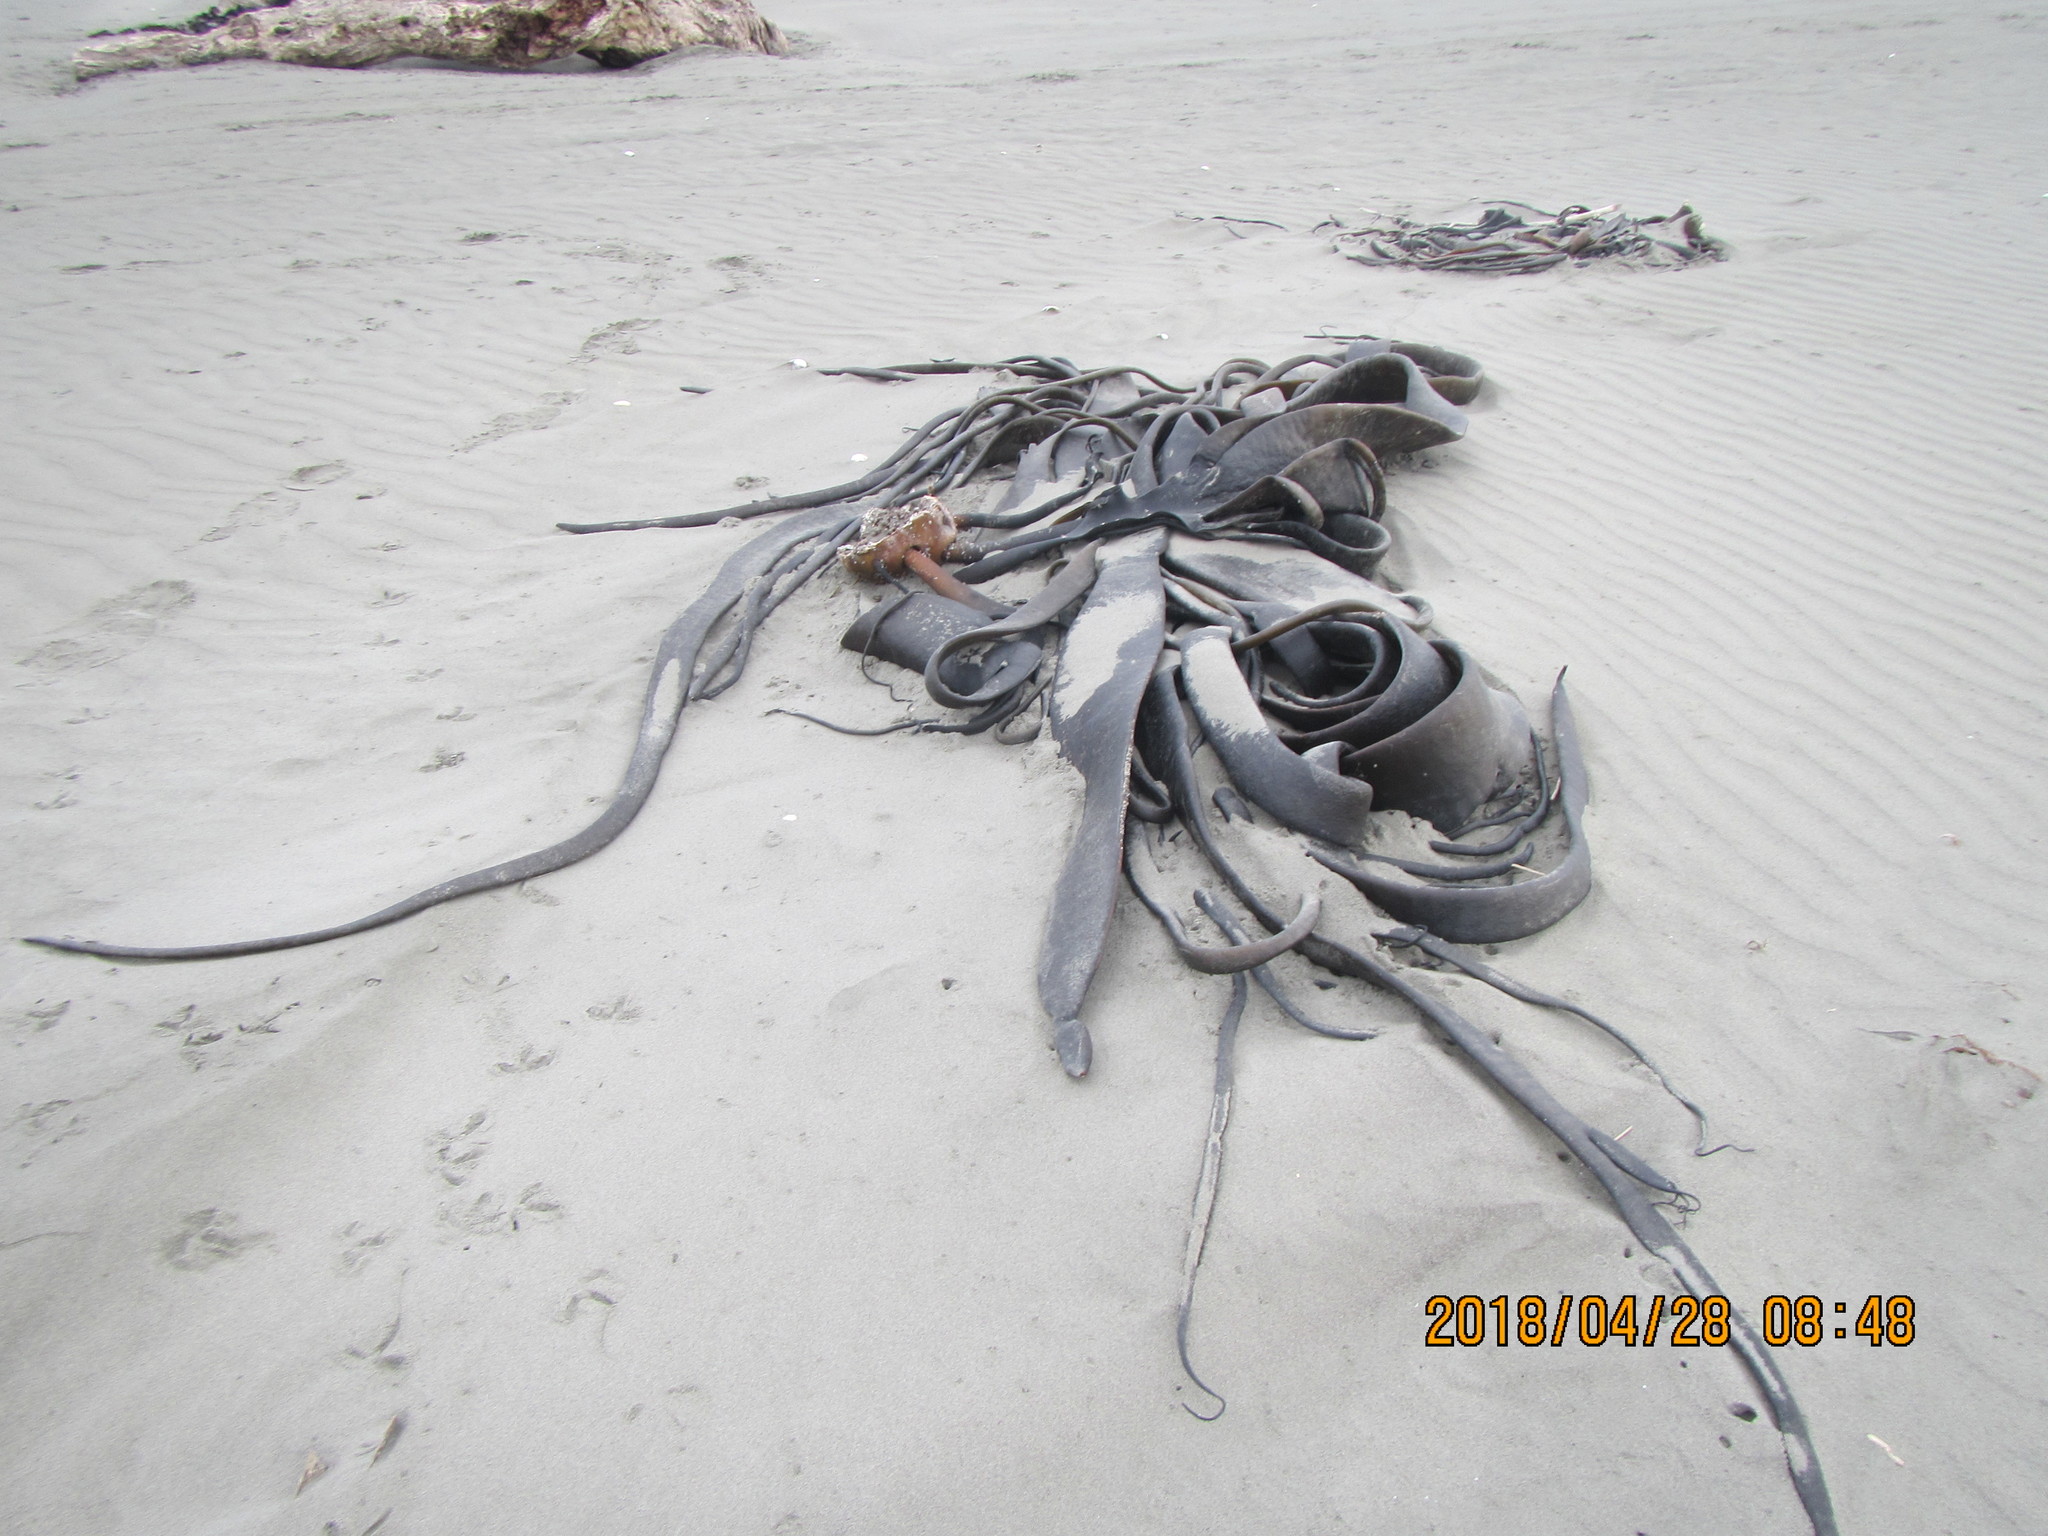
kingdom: Chromista
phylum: Ochrophyta
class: Phaeophyceae
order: Fucales
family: Durvillaeaceae
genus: Durvillaea
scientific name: Durvillaea antarctica
